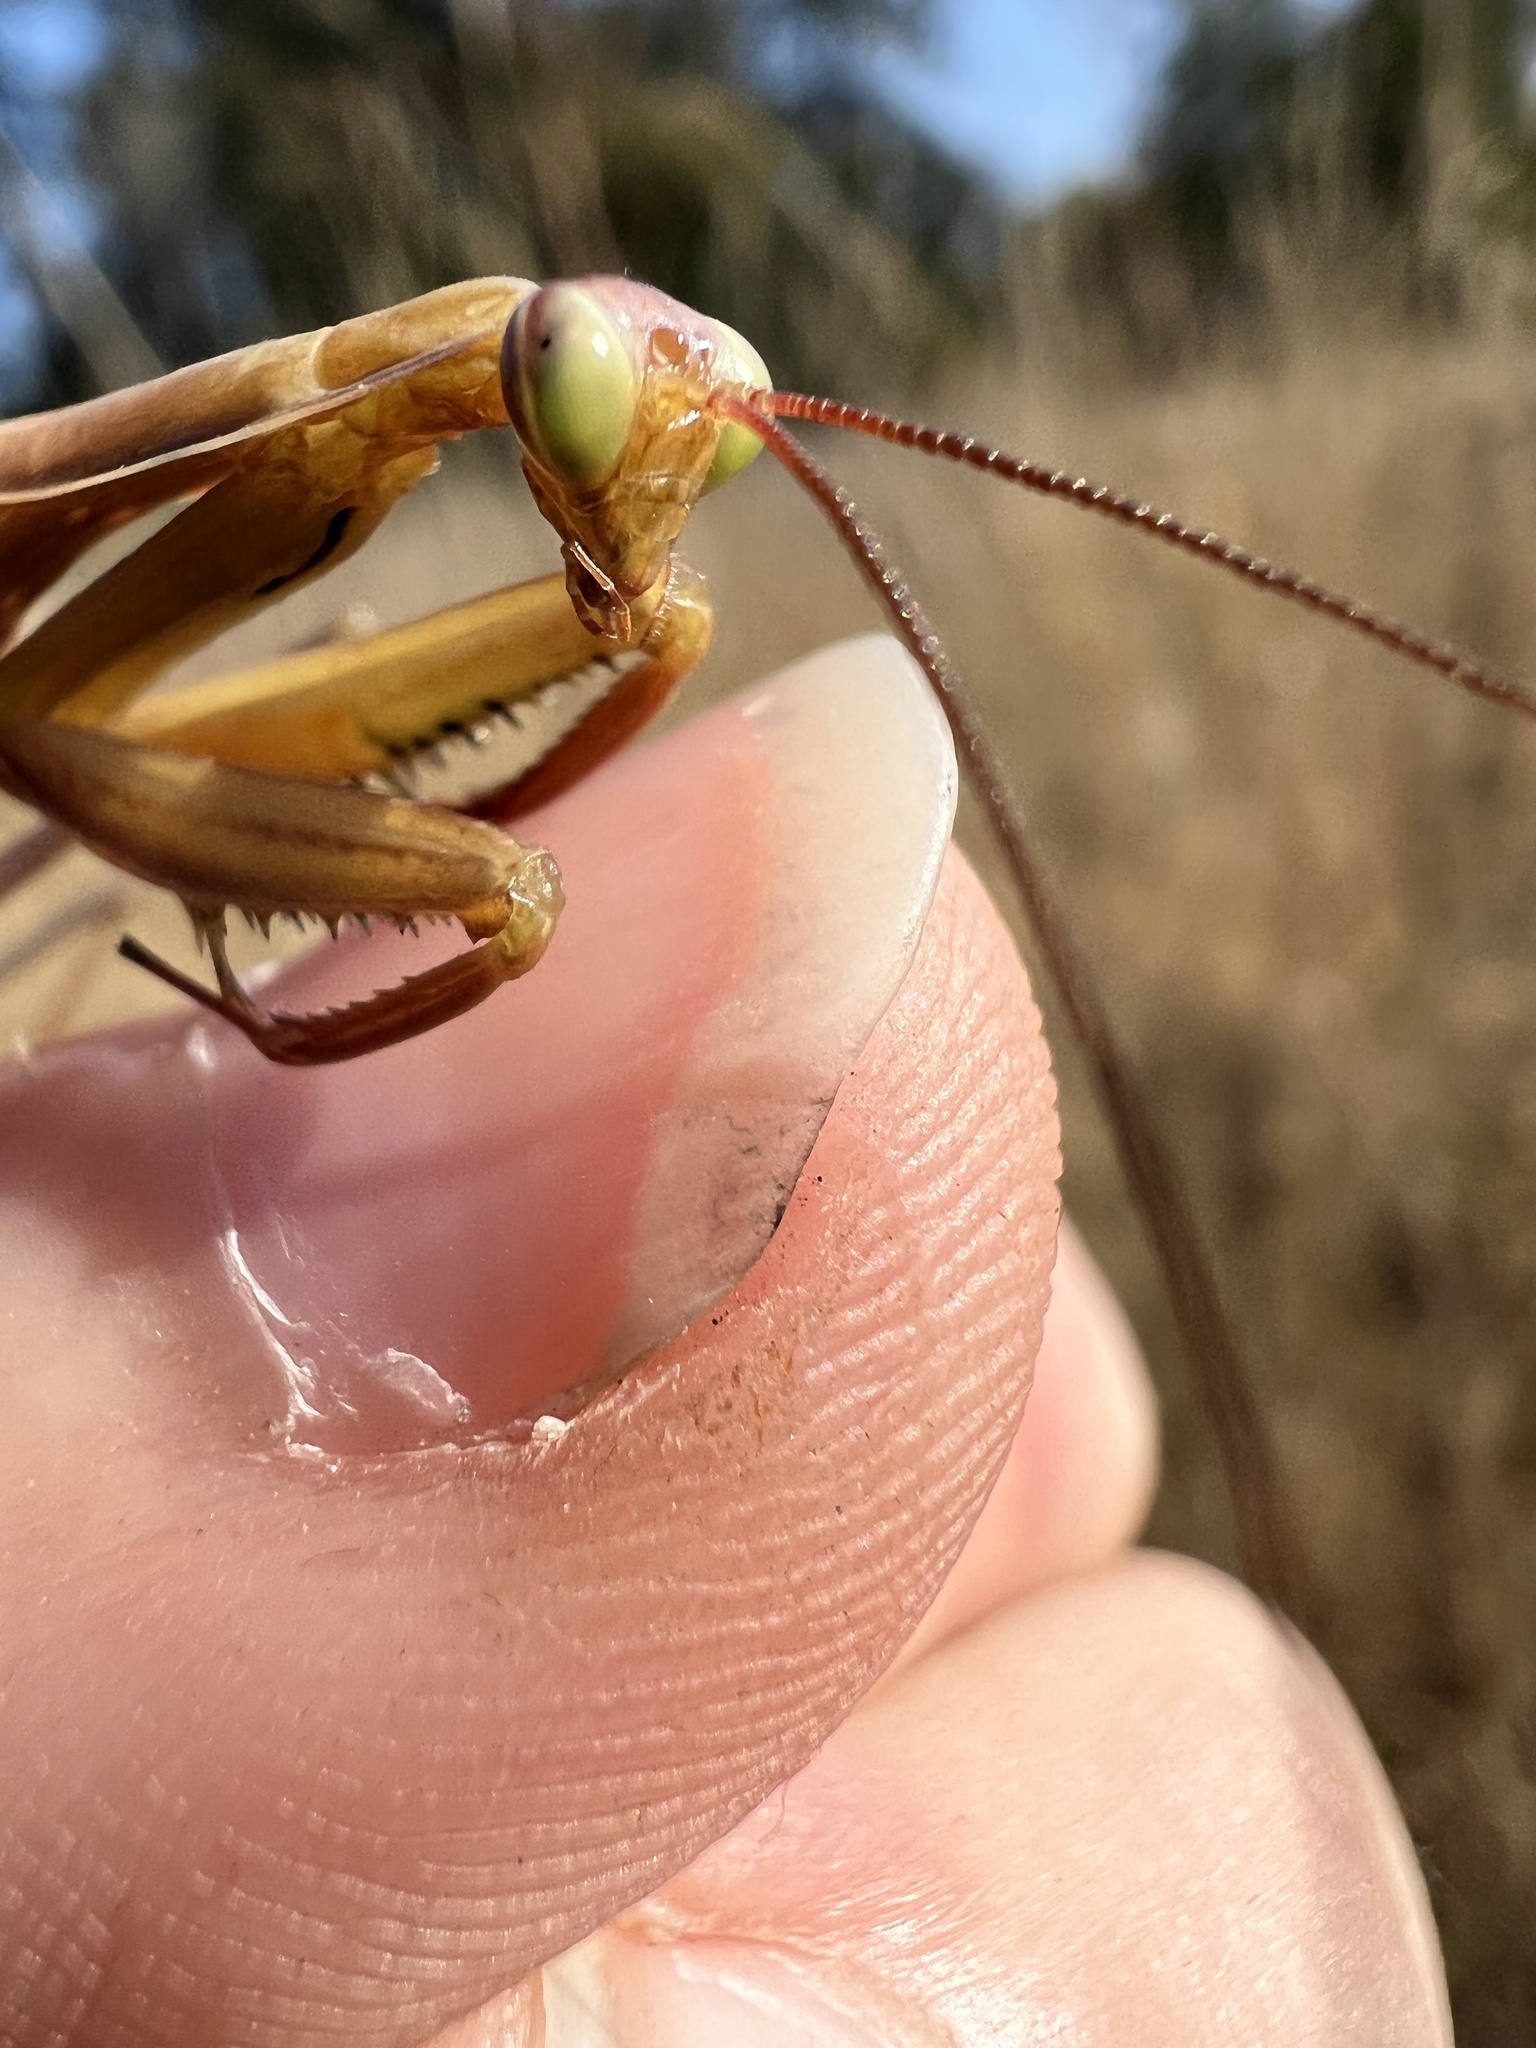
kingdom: Animalia
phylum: Arthropoda
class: Insecta
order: Mantodea
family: Mantidae
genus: Mantis
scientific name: Mantis religiosa
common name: Praying mantis
